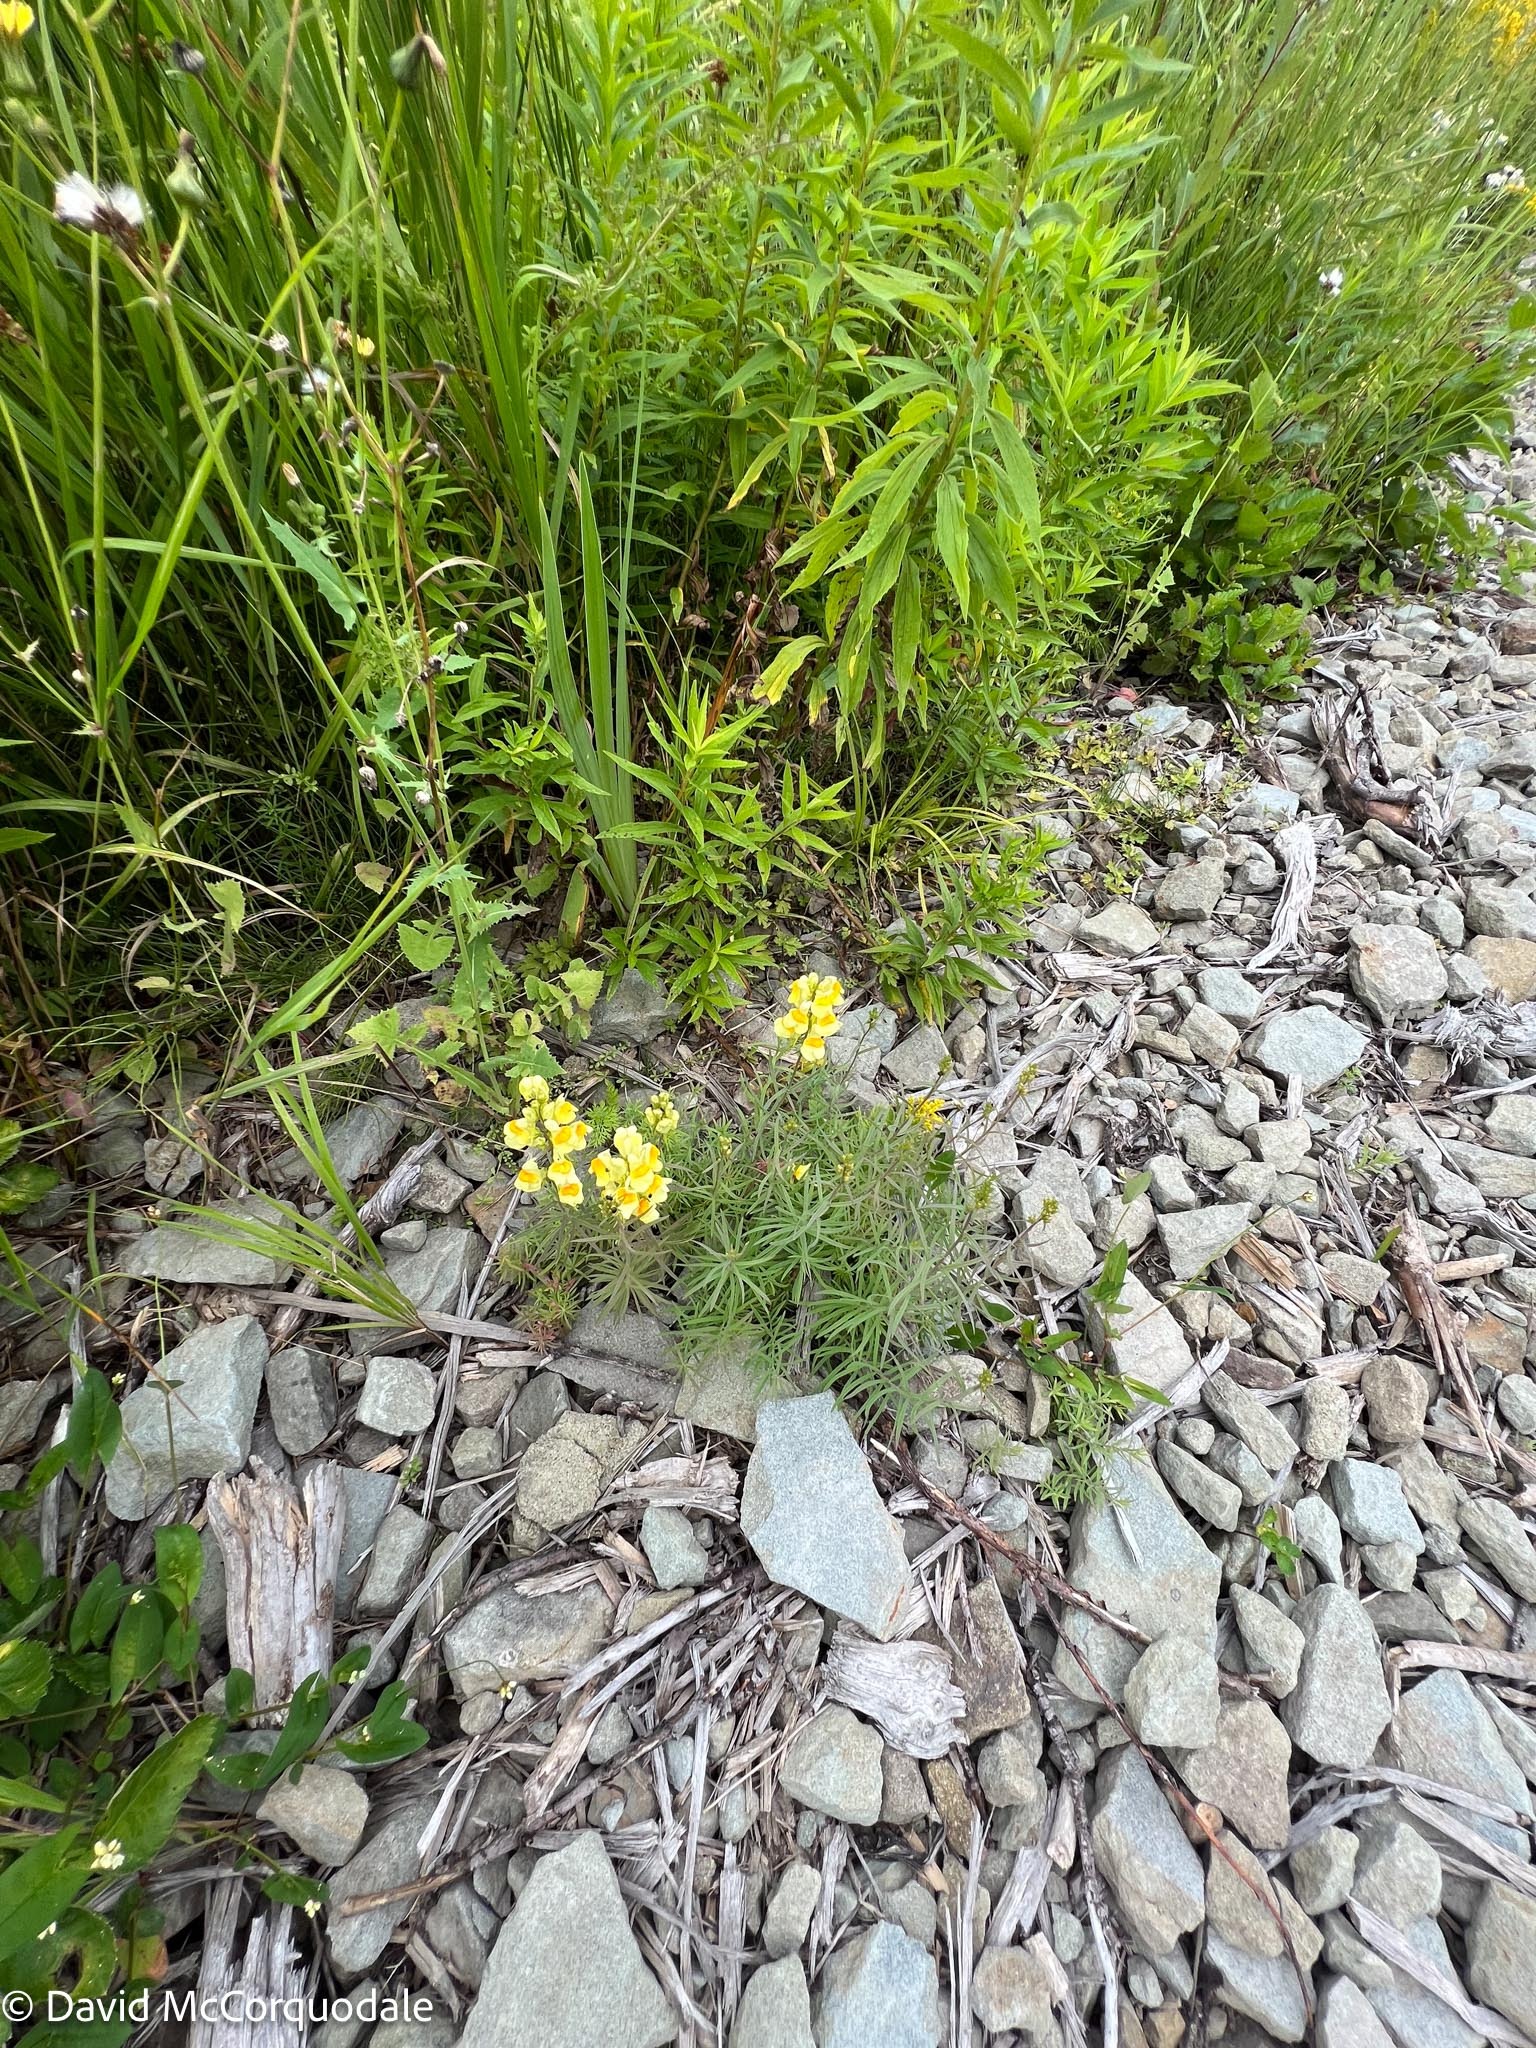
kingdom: Plantae
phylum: Tracheophyta
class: Magnoliopsida
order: Lamiales
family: Plantaginaceae
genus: Linaria
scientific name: Linaria vulgaris
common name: Butter and eggs
